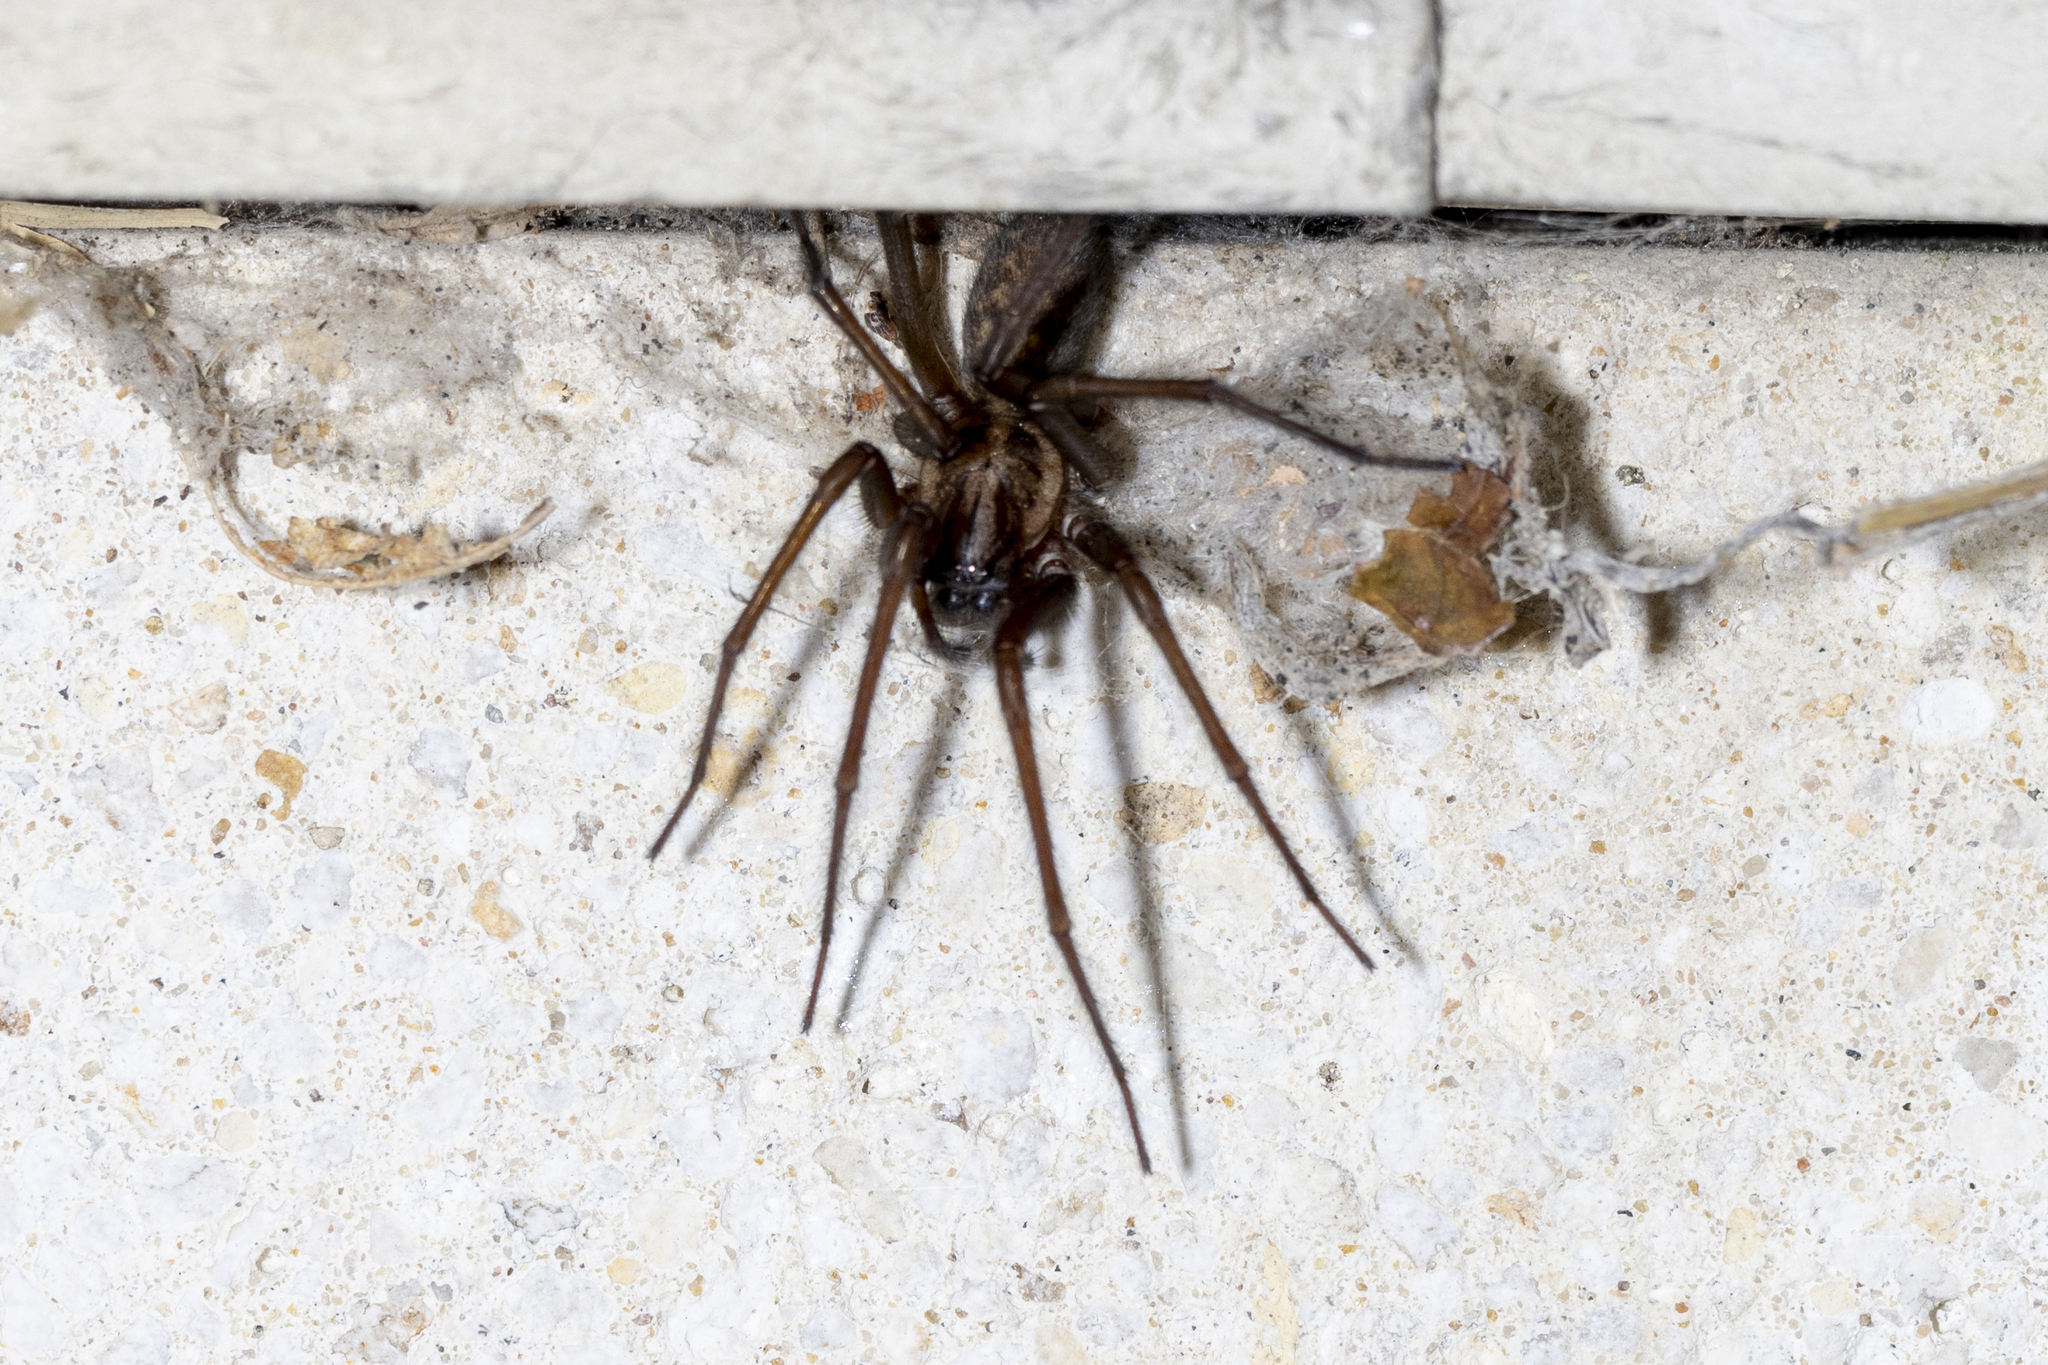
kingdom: Animalia
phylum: Arthropoda
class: Arachnida
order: Araneae
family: Agelenidae
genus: Eratigena
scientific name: Eratigena
